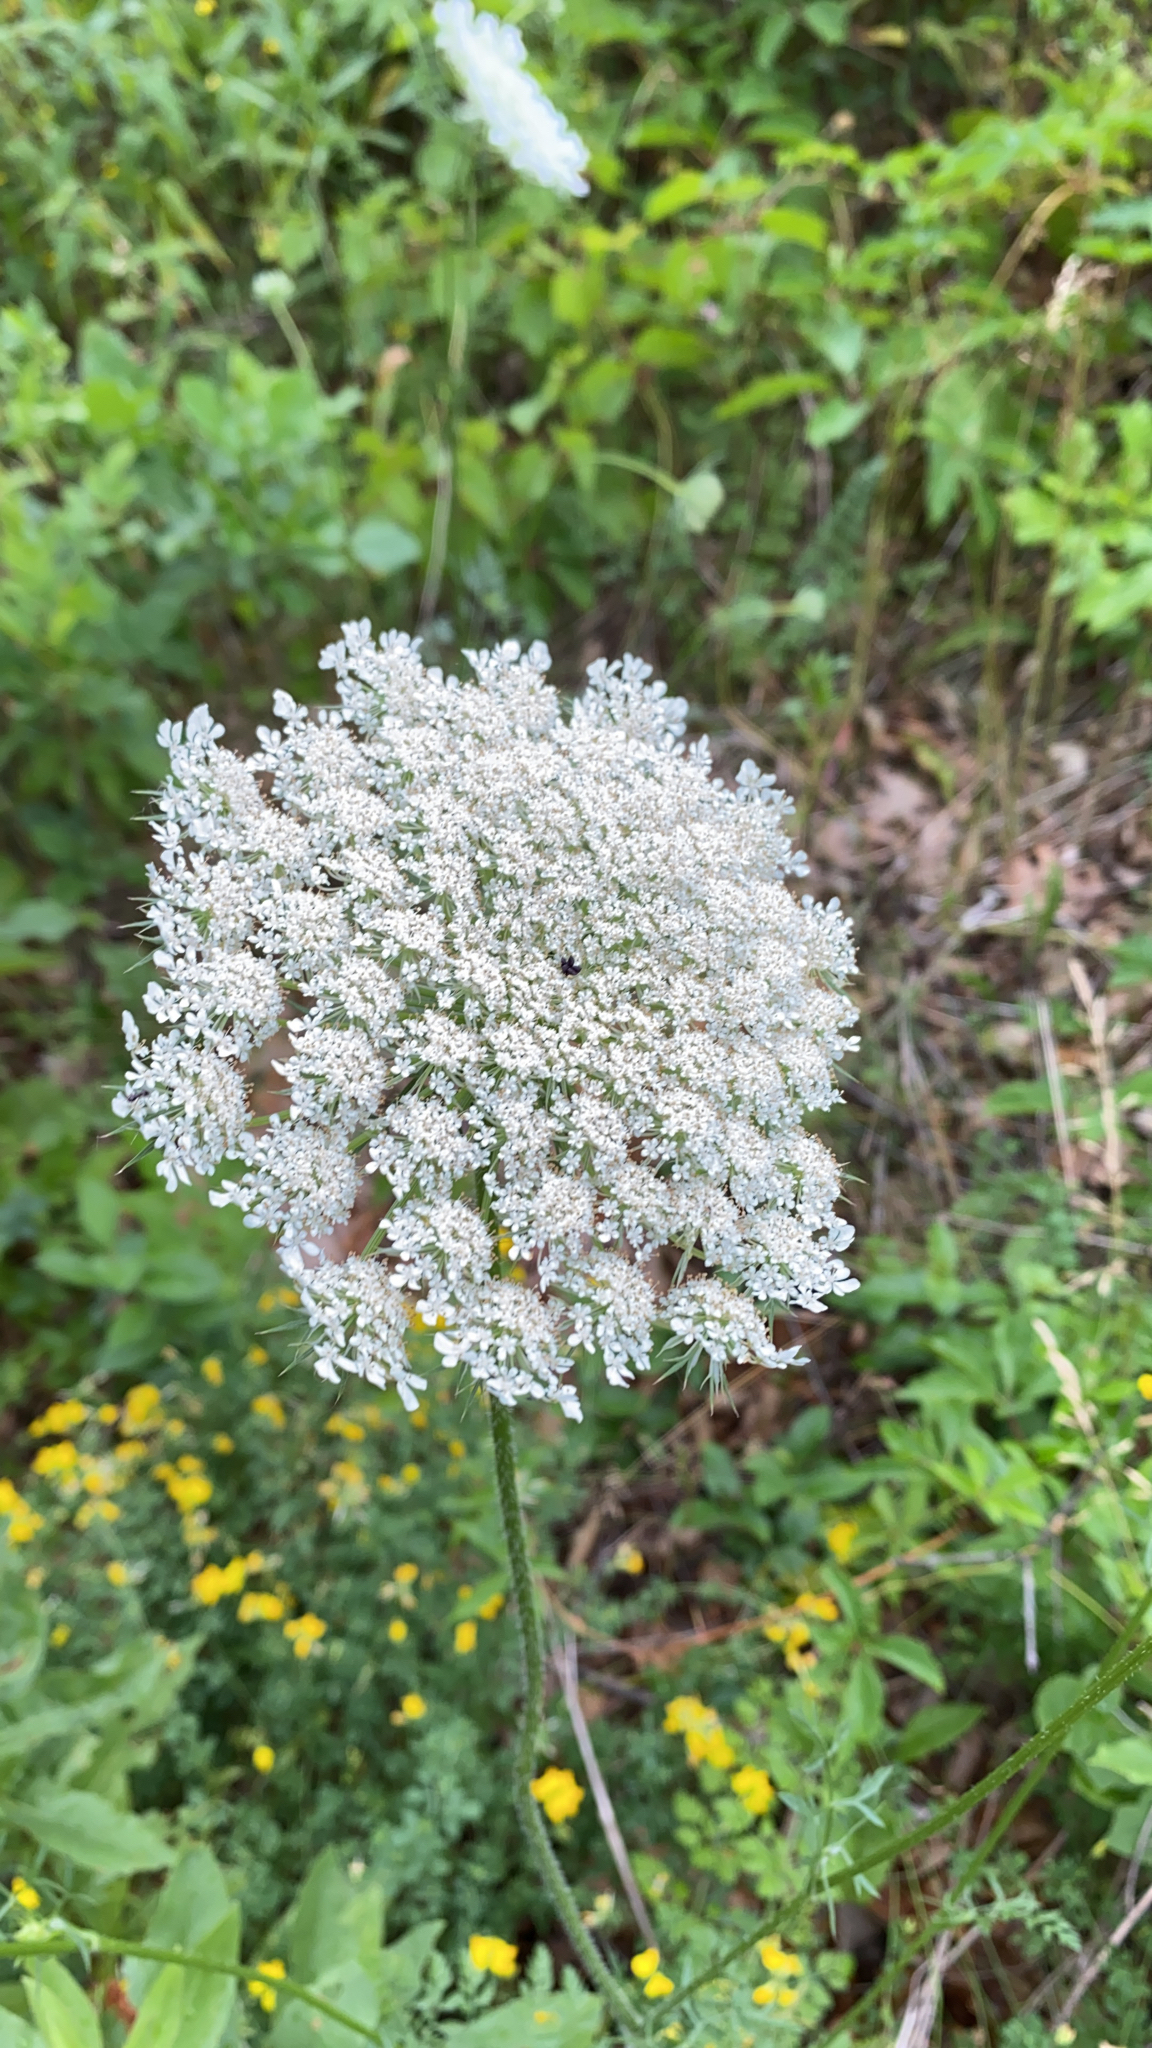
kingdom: Plantae
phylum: Tracheophyta
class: Magnoliopsida
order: Apiales
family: Apiaceae
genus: Daucus
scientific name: Daucus carota
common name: Wild carrot
